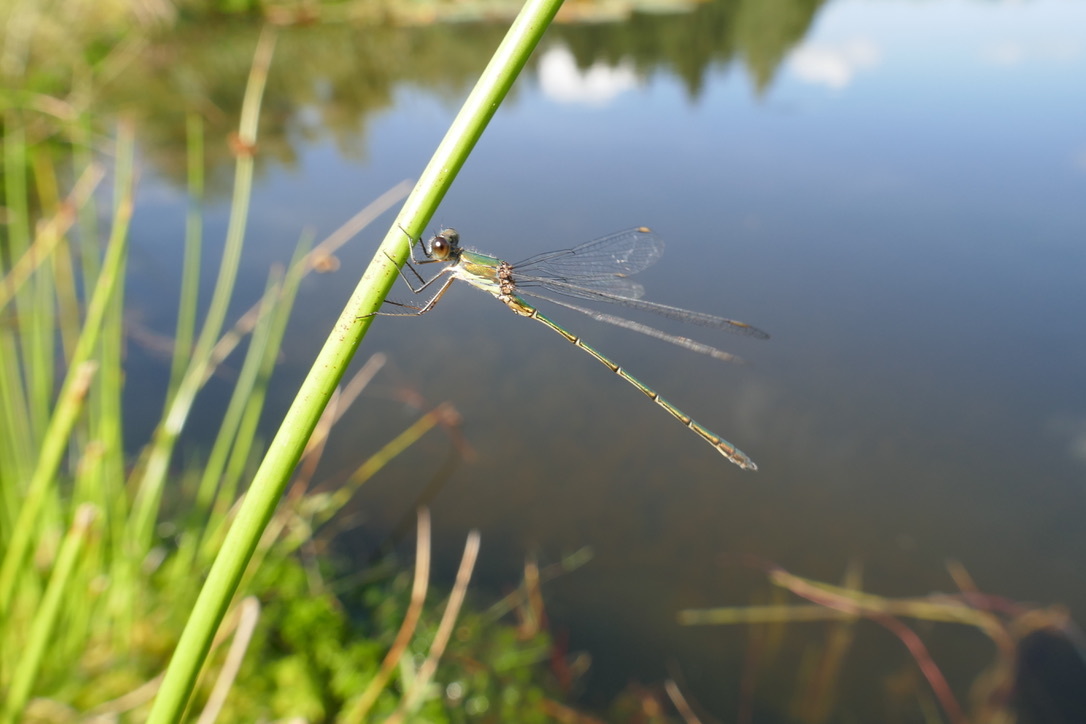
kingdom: Animalia
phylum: Arthropoda
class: Insecta
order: Odonata
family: Lestidae
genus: Chalcolestes
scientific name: Chalcolestes viridis
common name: Green emerald damselfly
